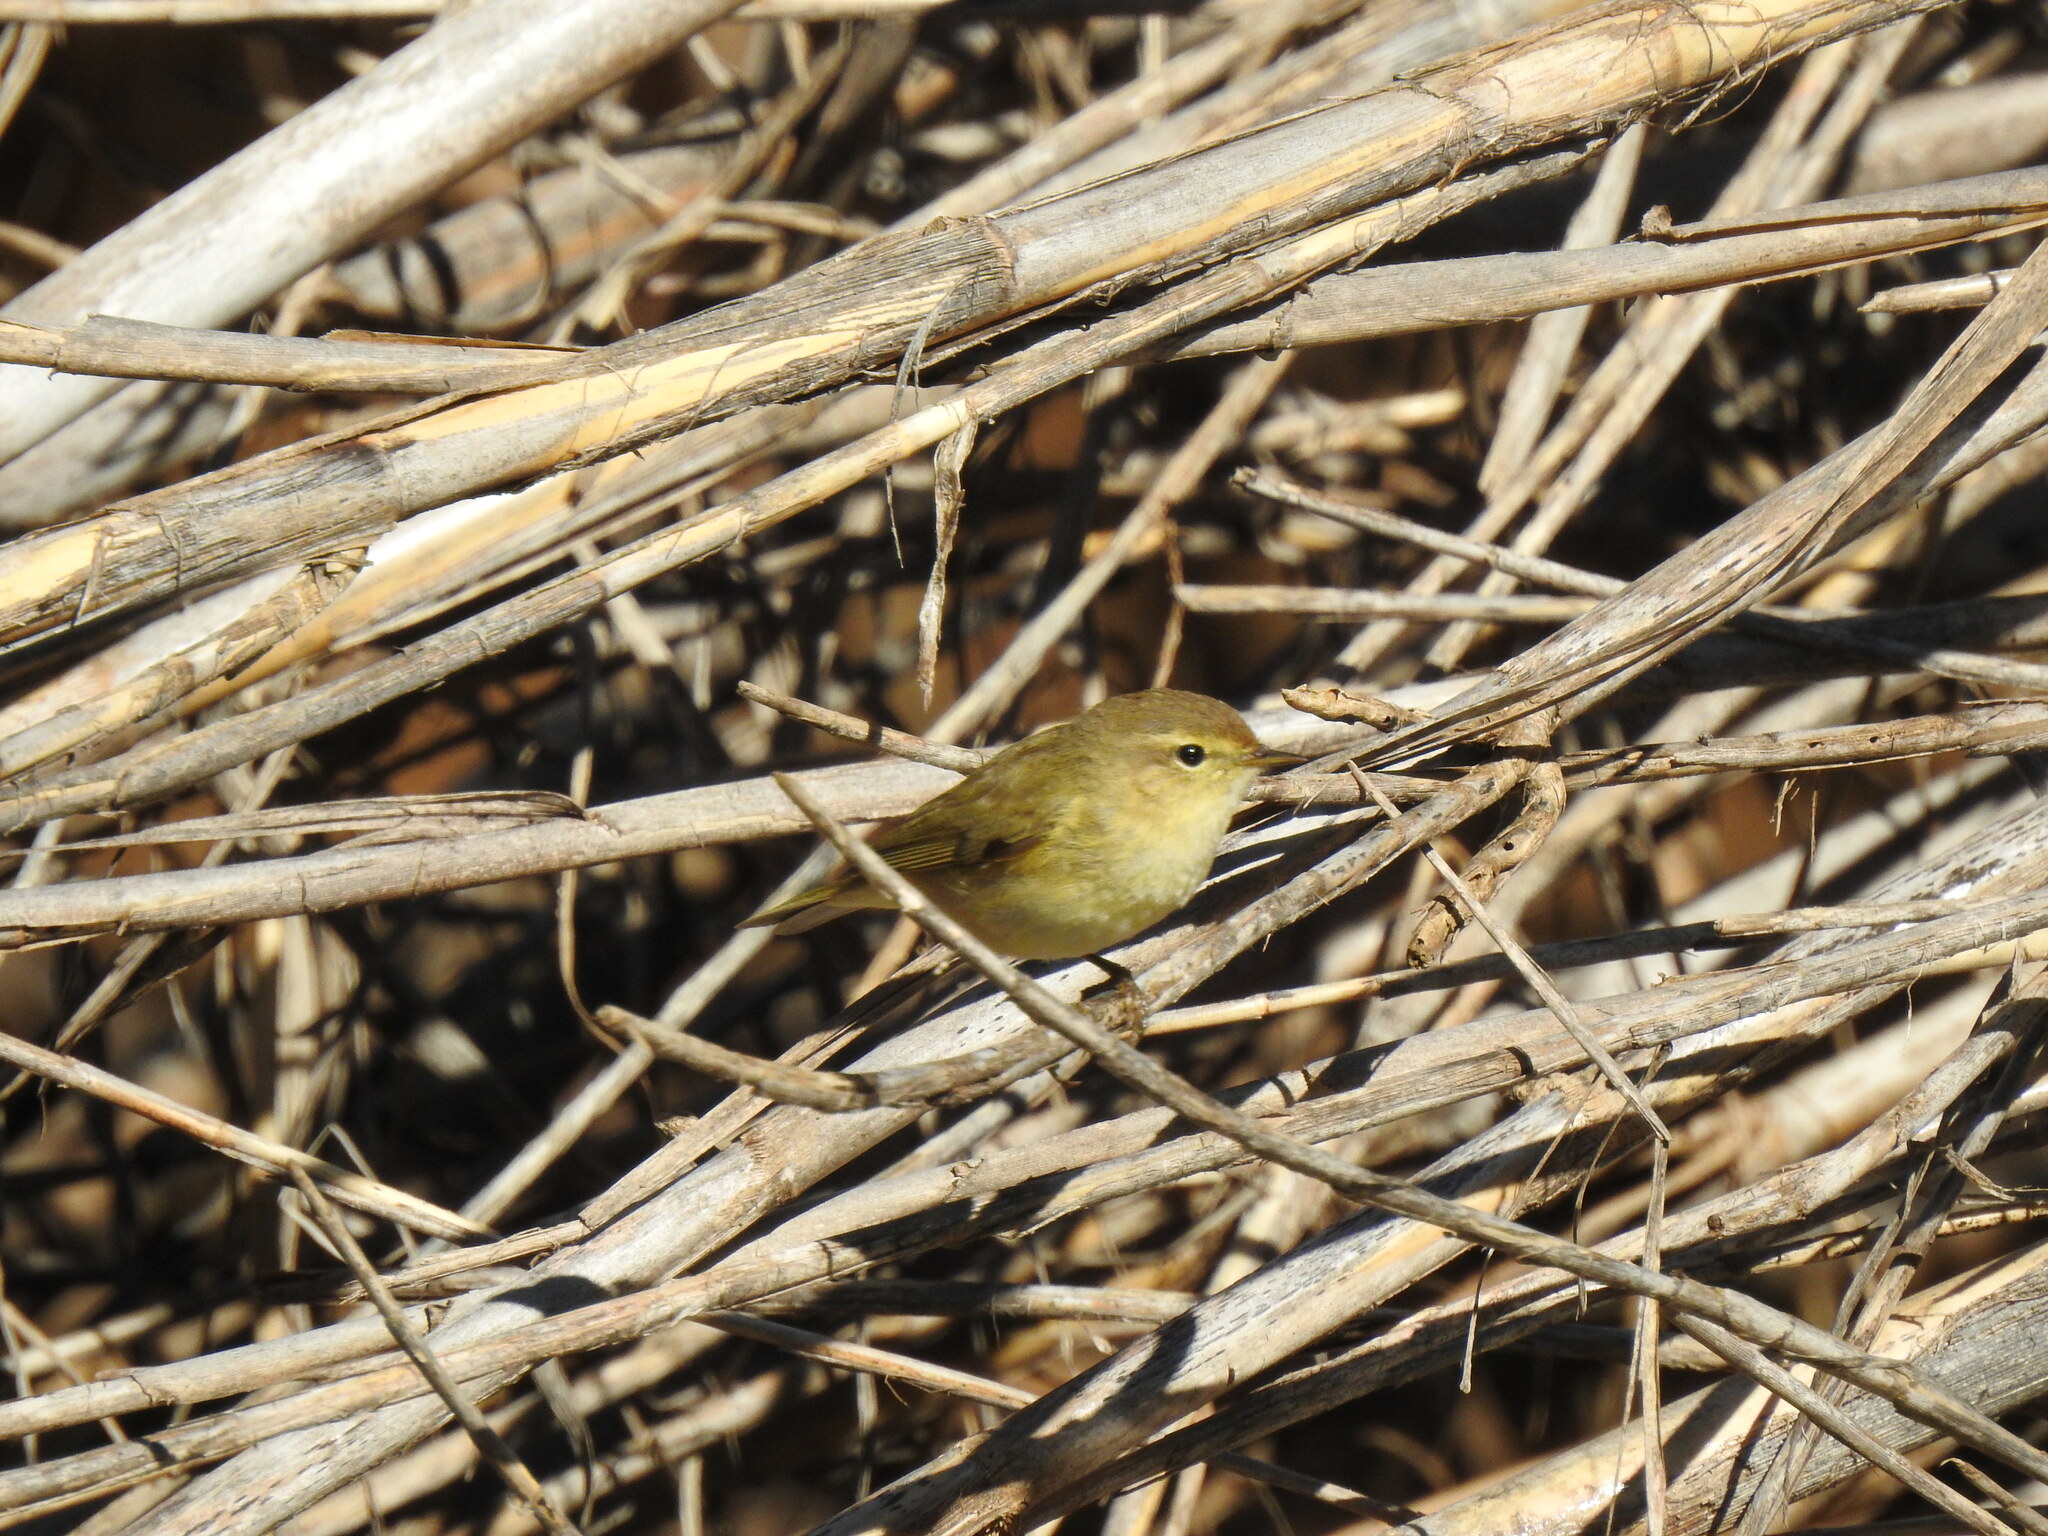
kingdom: Animalia
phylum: Chordata
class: Aves
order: Passeriformes
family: Phylloscopidae
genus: Phylloscopus
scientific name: Phylloscopus collybita
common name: Common chiffchaff
